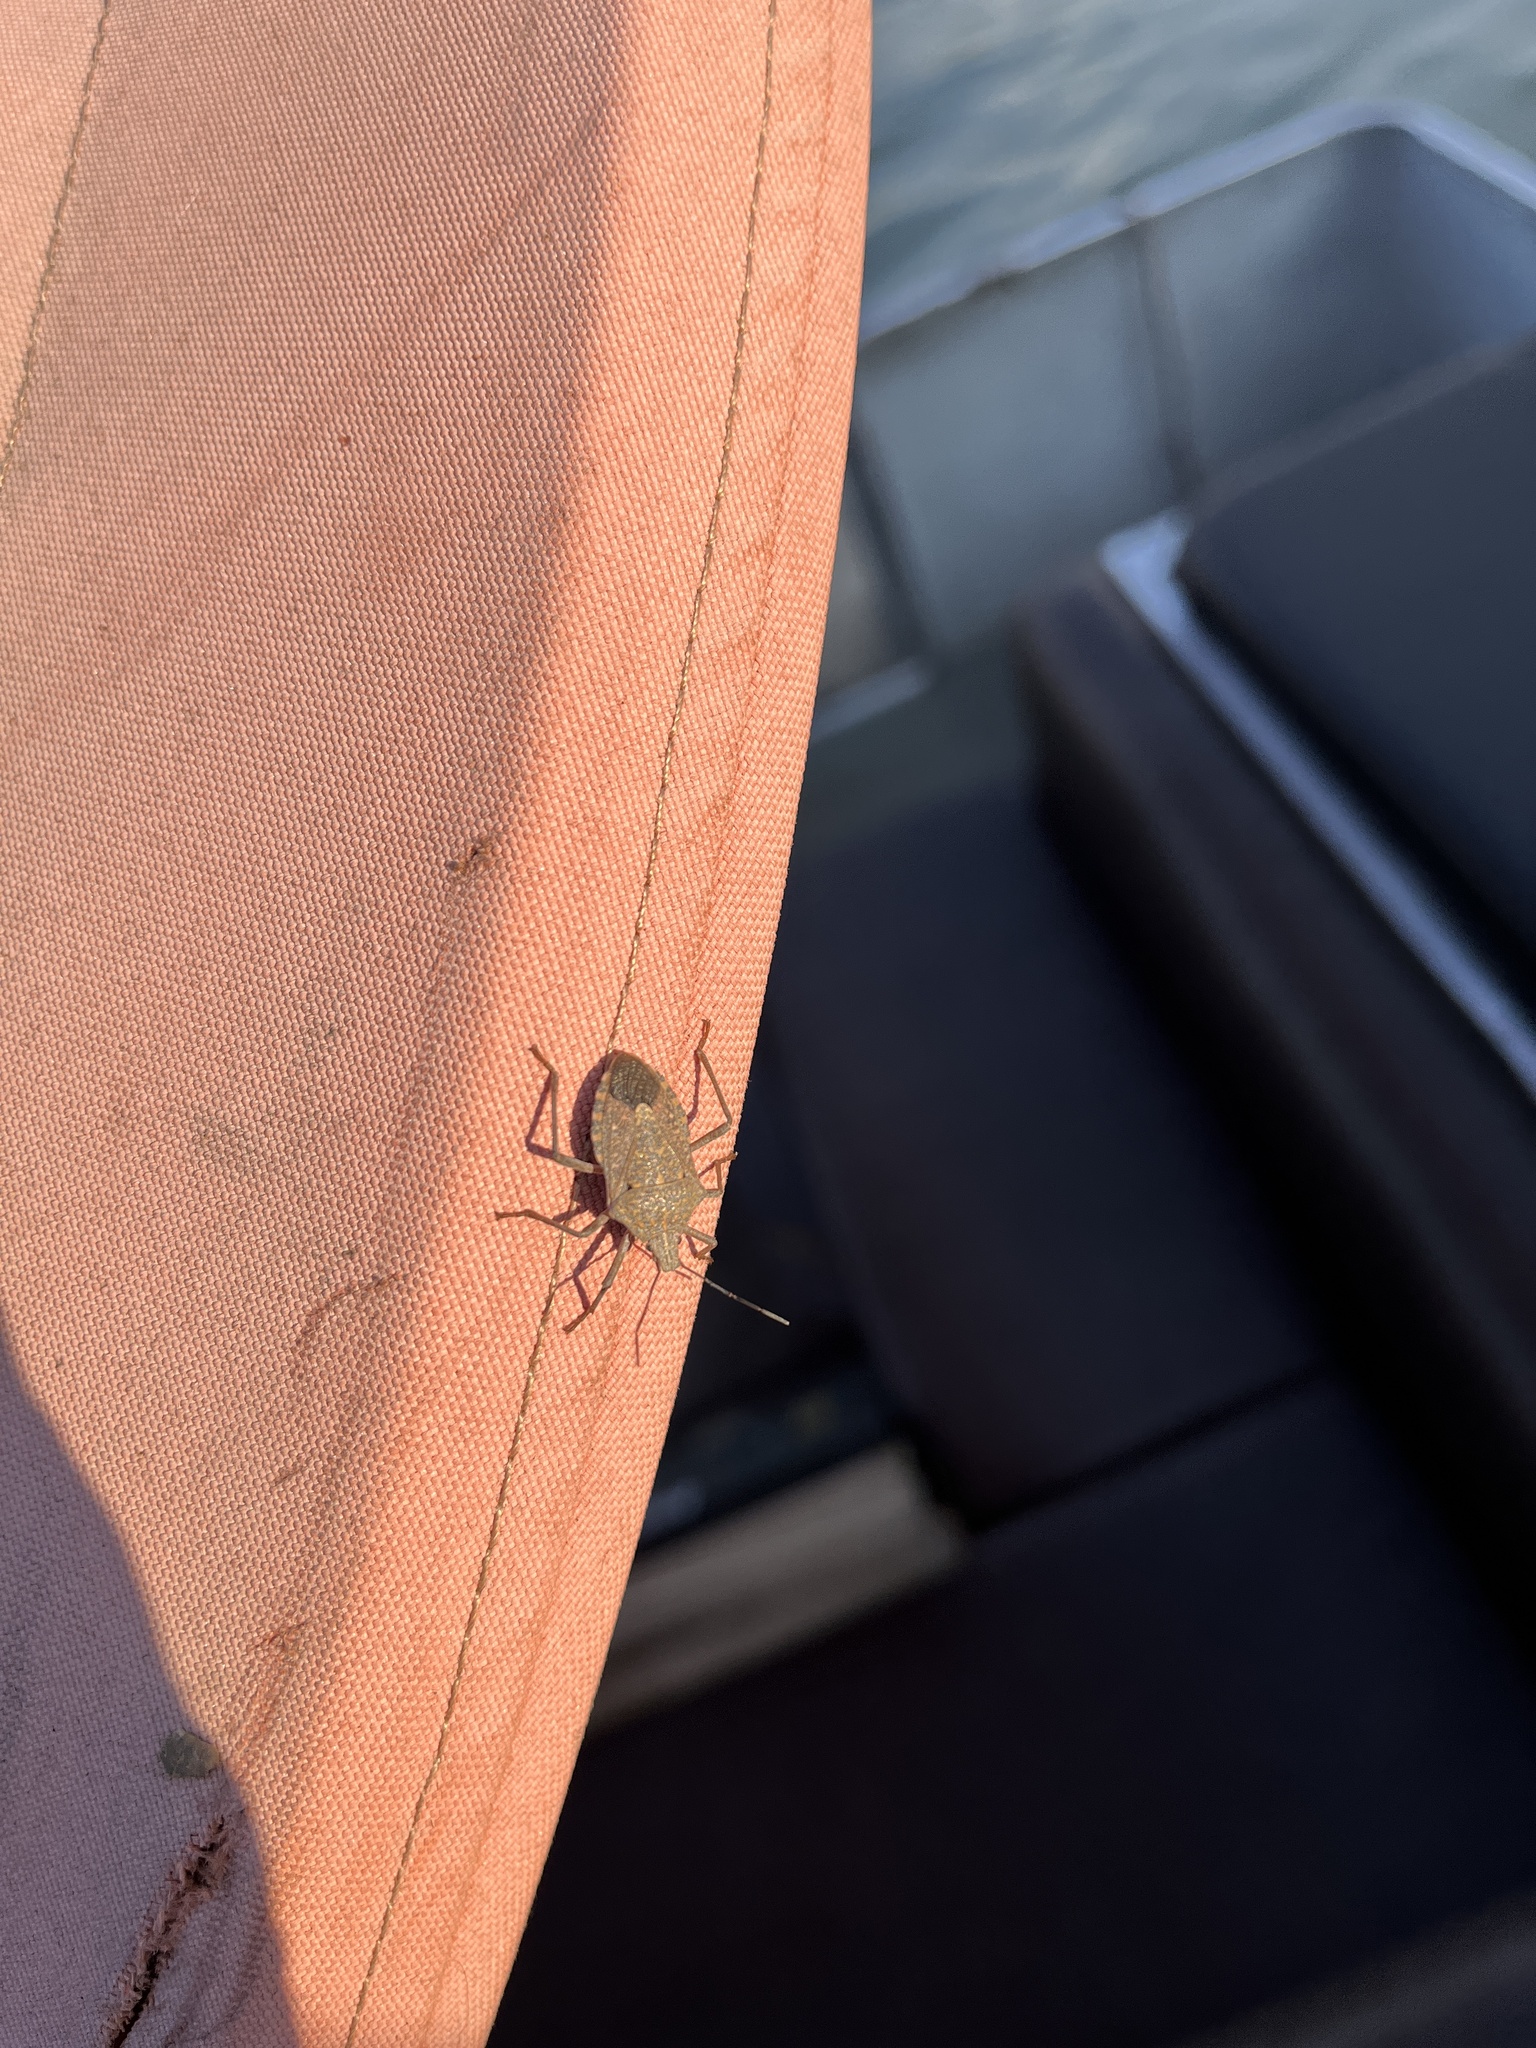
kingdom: Animalia
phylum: Arthropoda
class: Insecta
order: Hemiptera
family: Pentatomidae
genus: Halyomorpha
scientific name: Halyomorpha halys
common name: Brown marmorated stink bug
